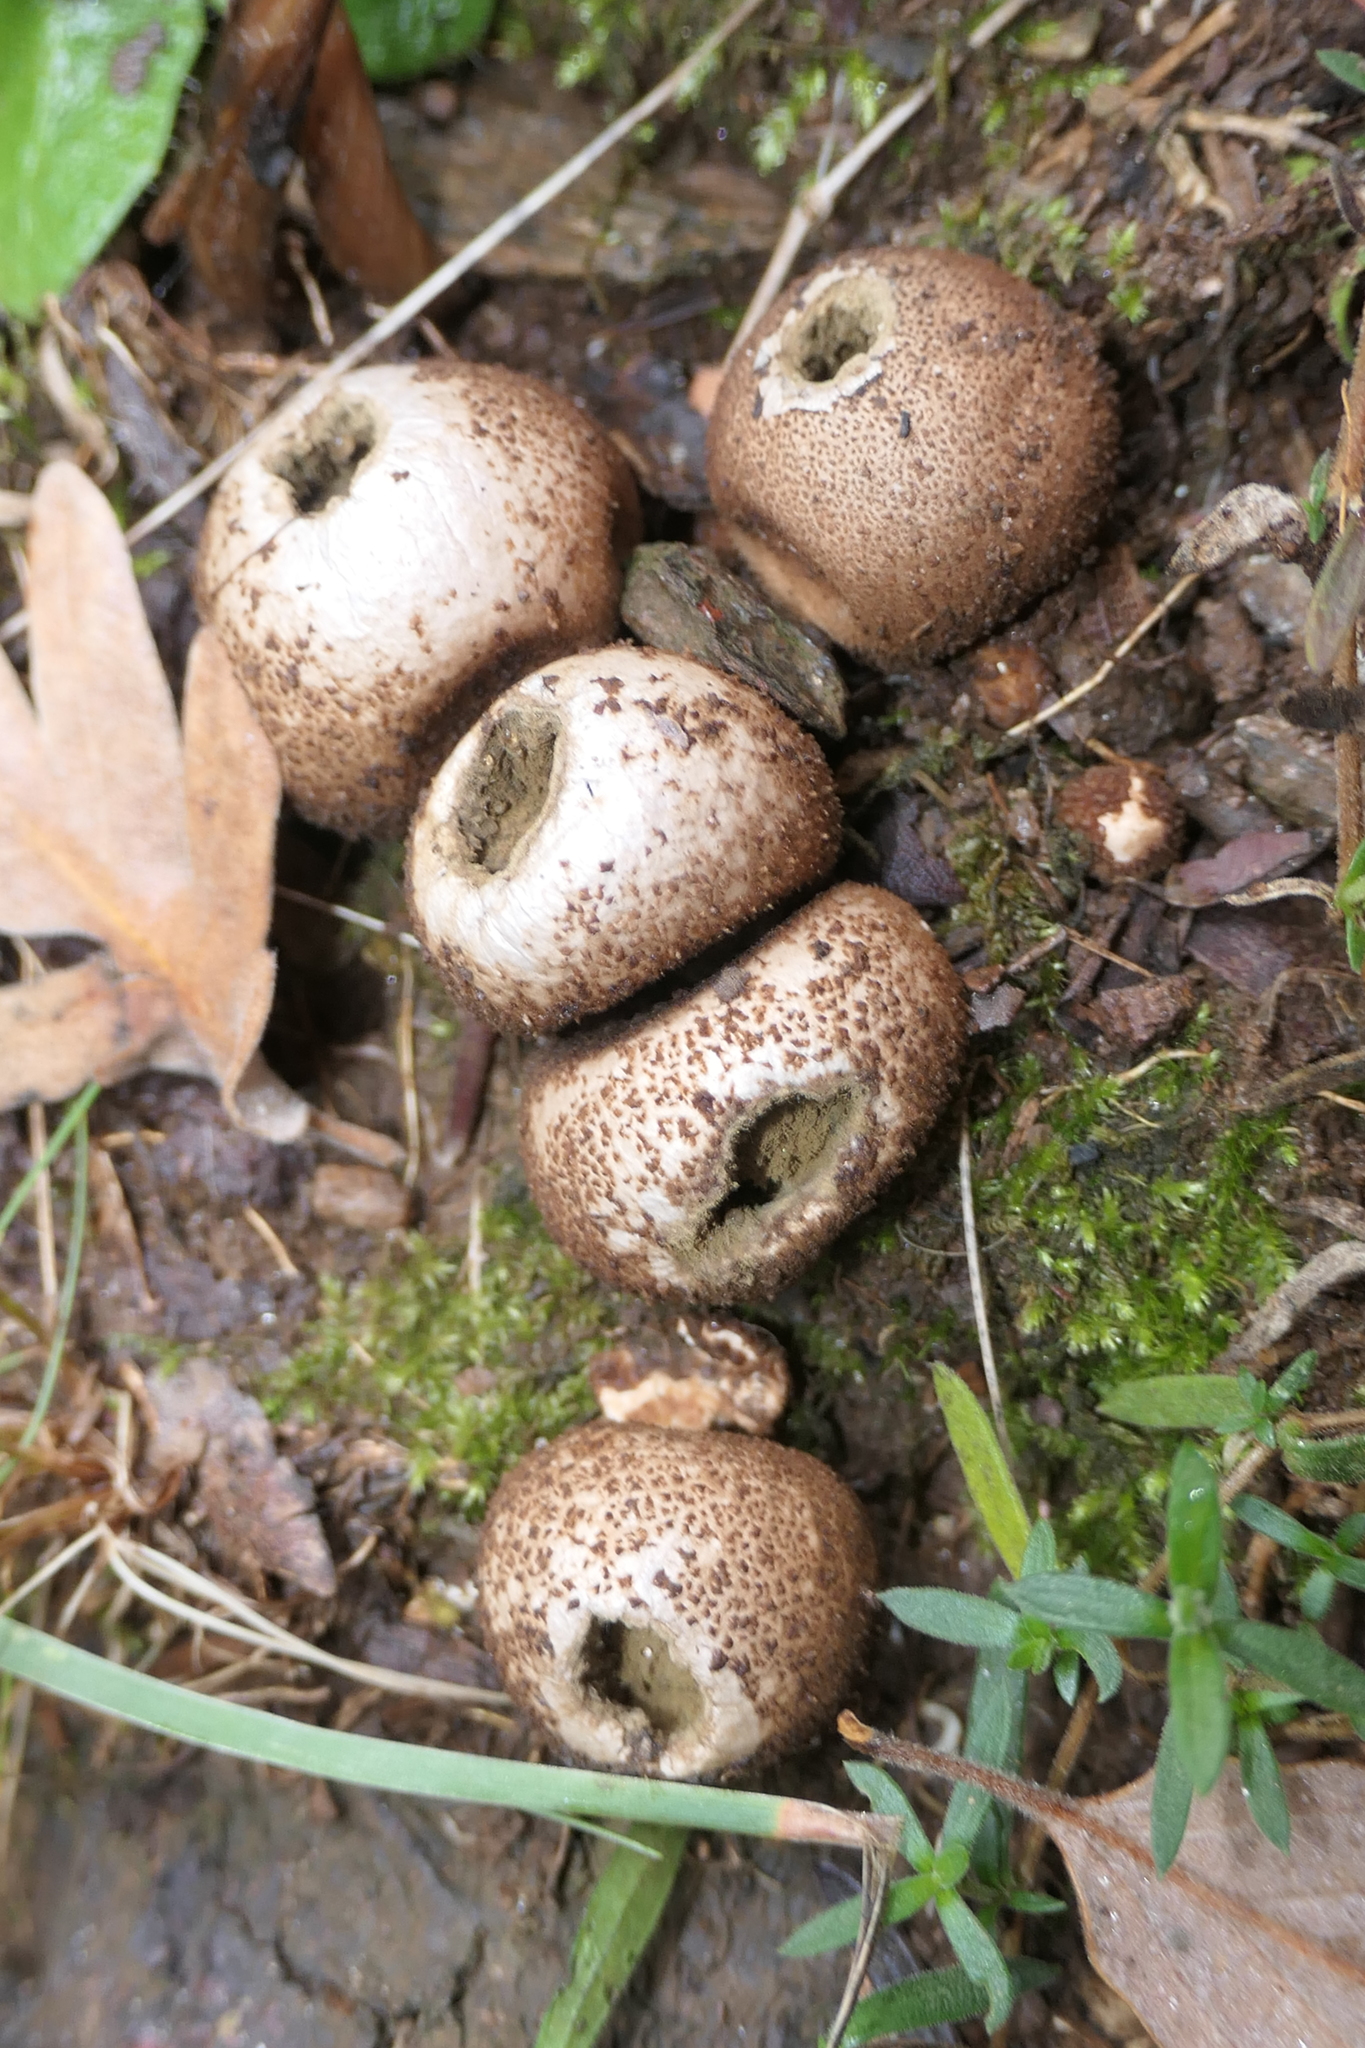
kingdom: Fungi
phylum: Basidiomycota
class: Agaricomycetes
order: Agaricales
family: Lycoperdaceae
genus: Apioperdon
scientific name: Apioperdon pyriforme
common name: Pear-shaped puffball
